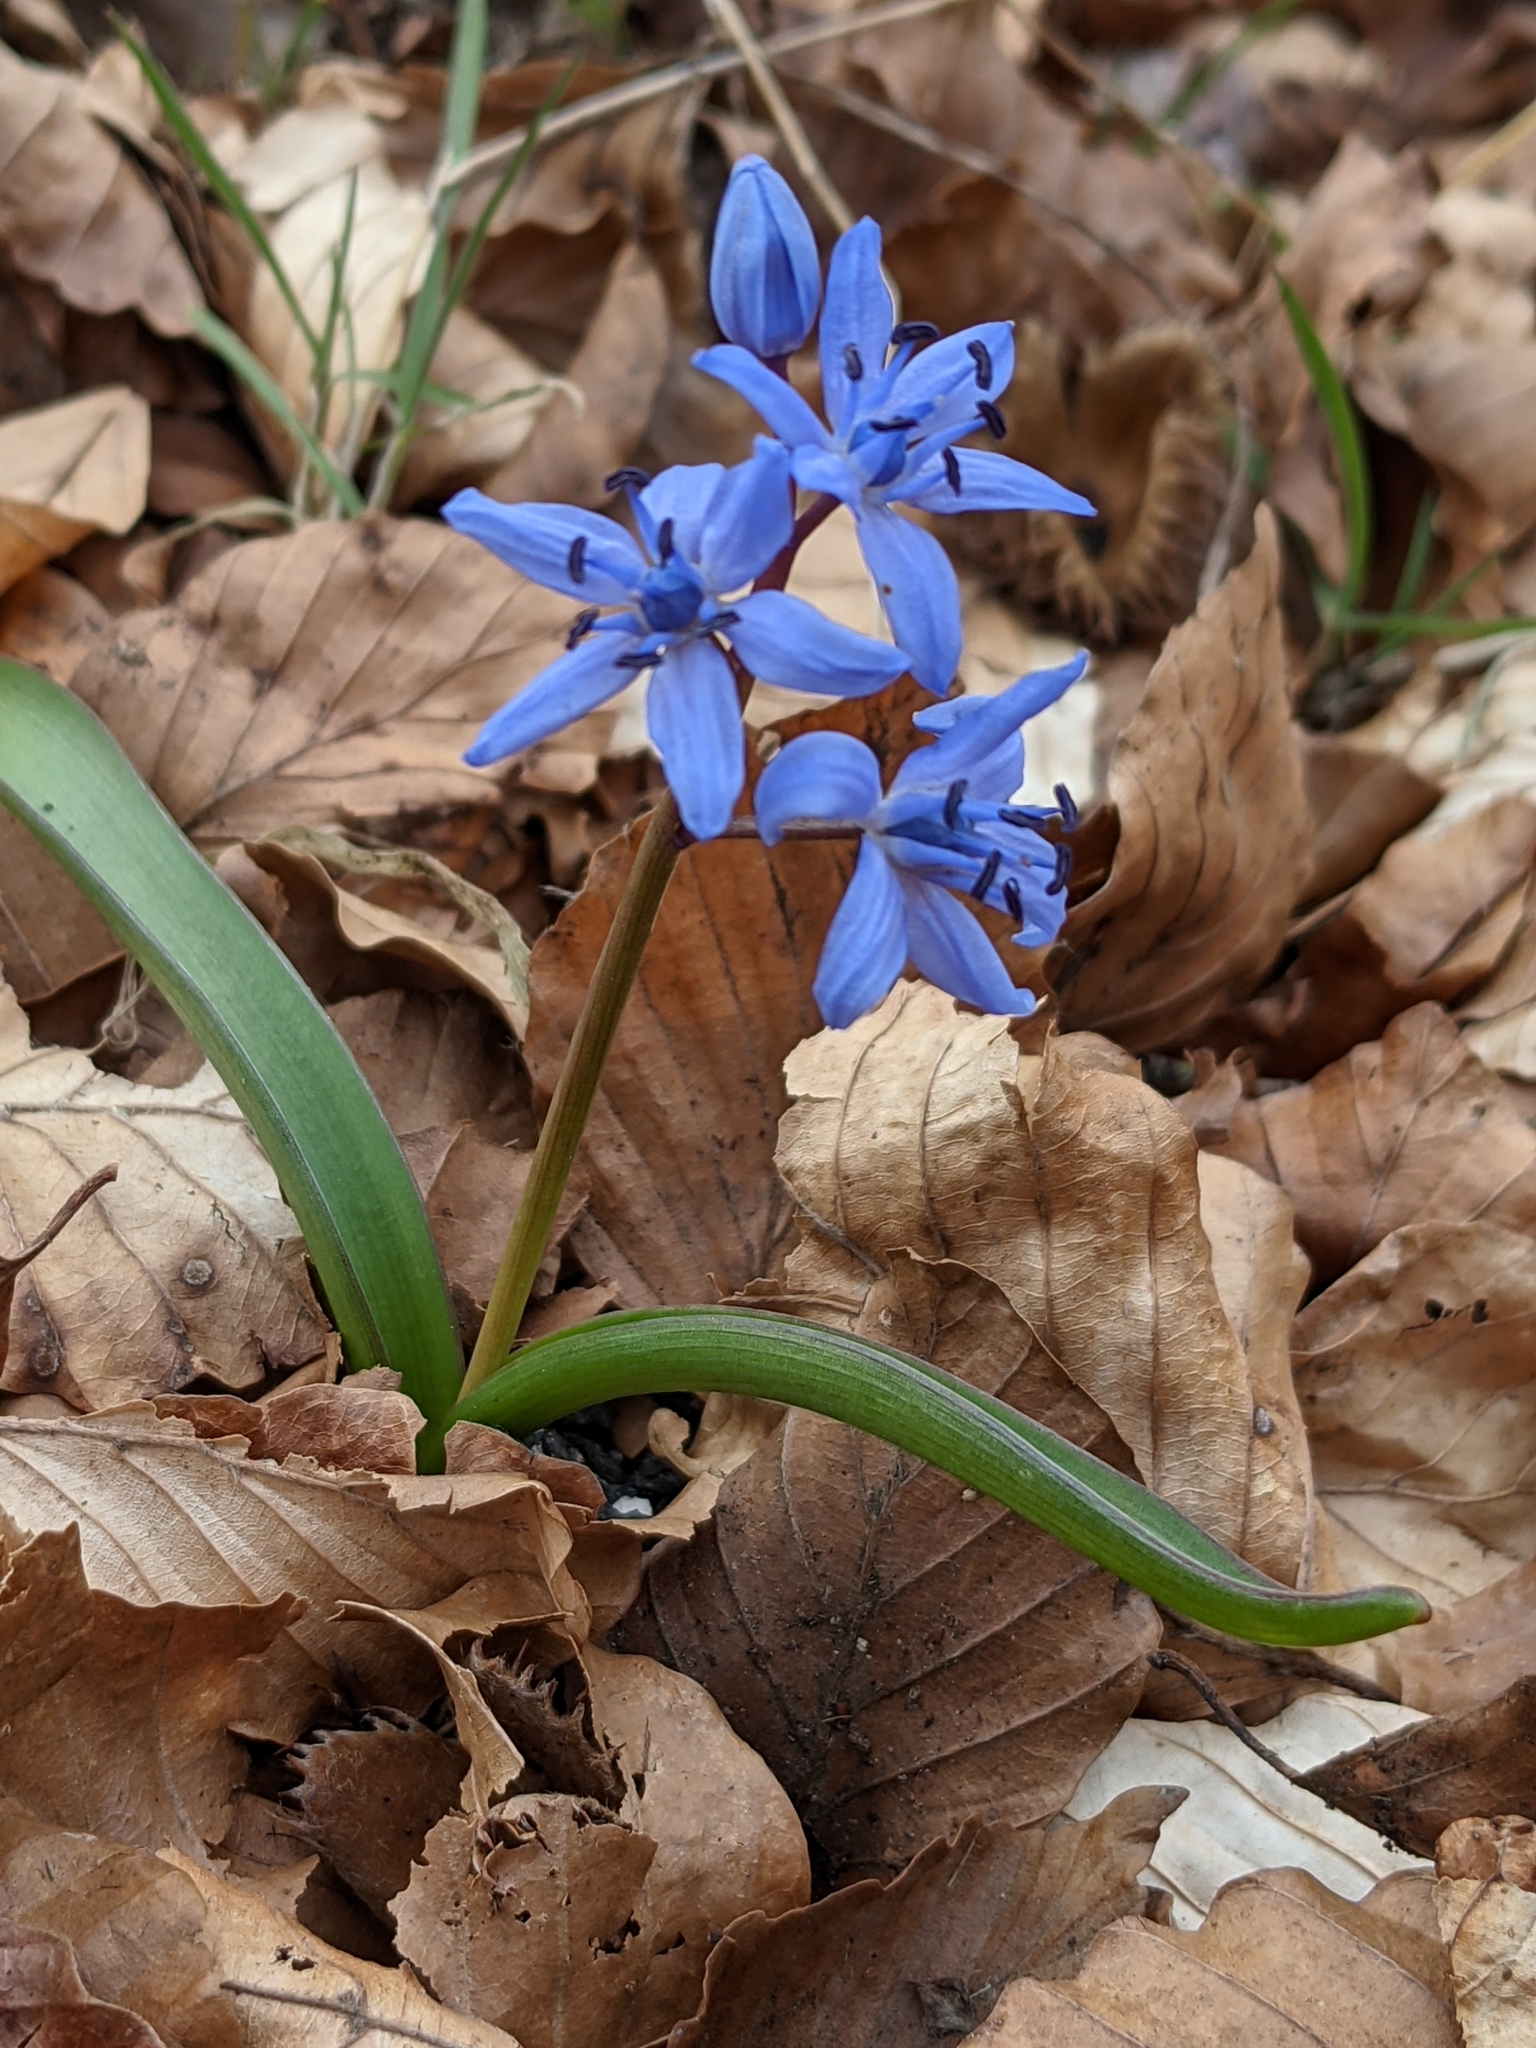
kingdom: Plantae
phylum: Tracheophyta
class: Liliopsida
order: Asparagales
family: Asparagaceae
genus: Scilla
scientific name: Scilla bifolia
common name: Alpine squill
